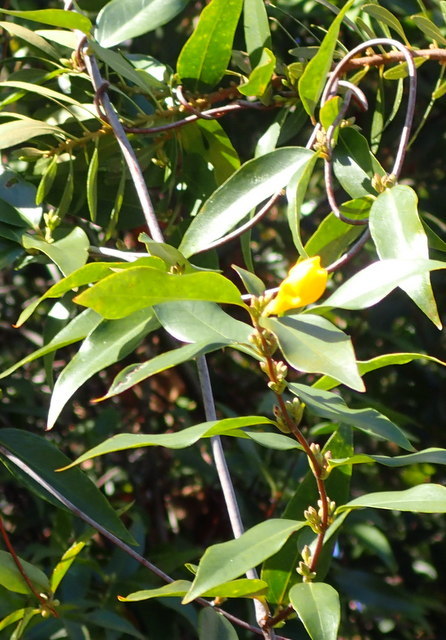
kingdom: Plantae
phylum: Tracheophyta
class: Magnoliopsida
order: Gentianales
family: Gelsemiaceae
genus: Gelsemium
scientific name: Gelsemium sempervirens
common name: Carolina-jasmine
